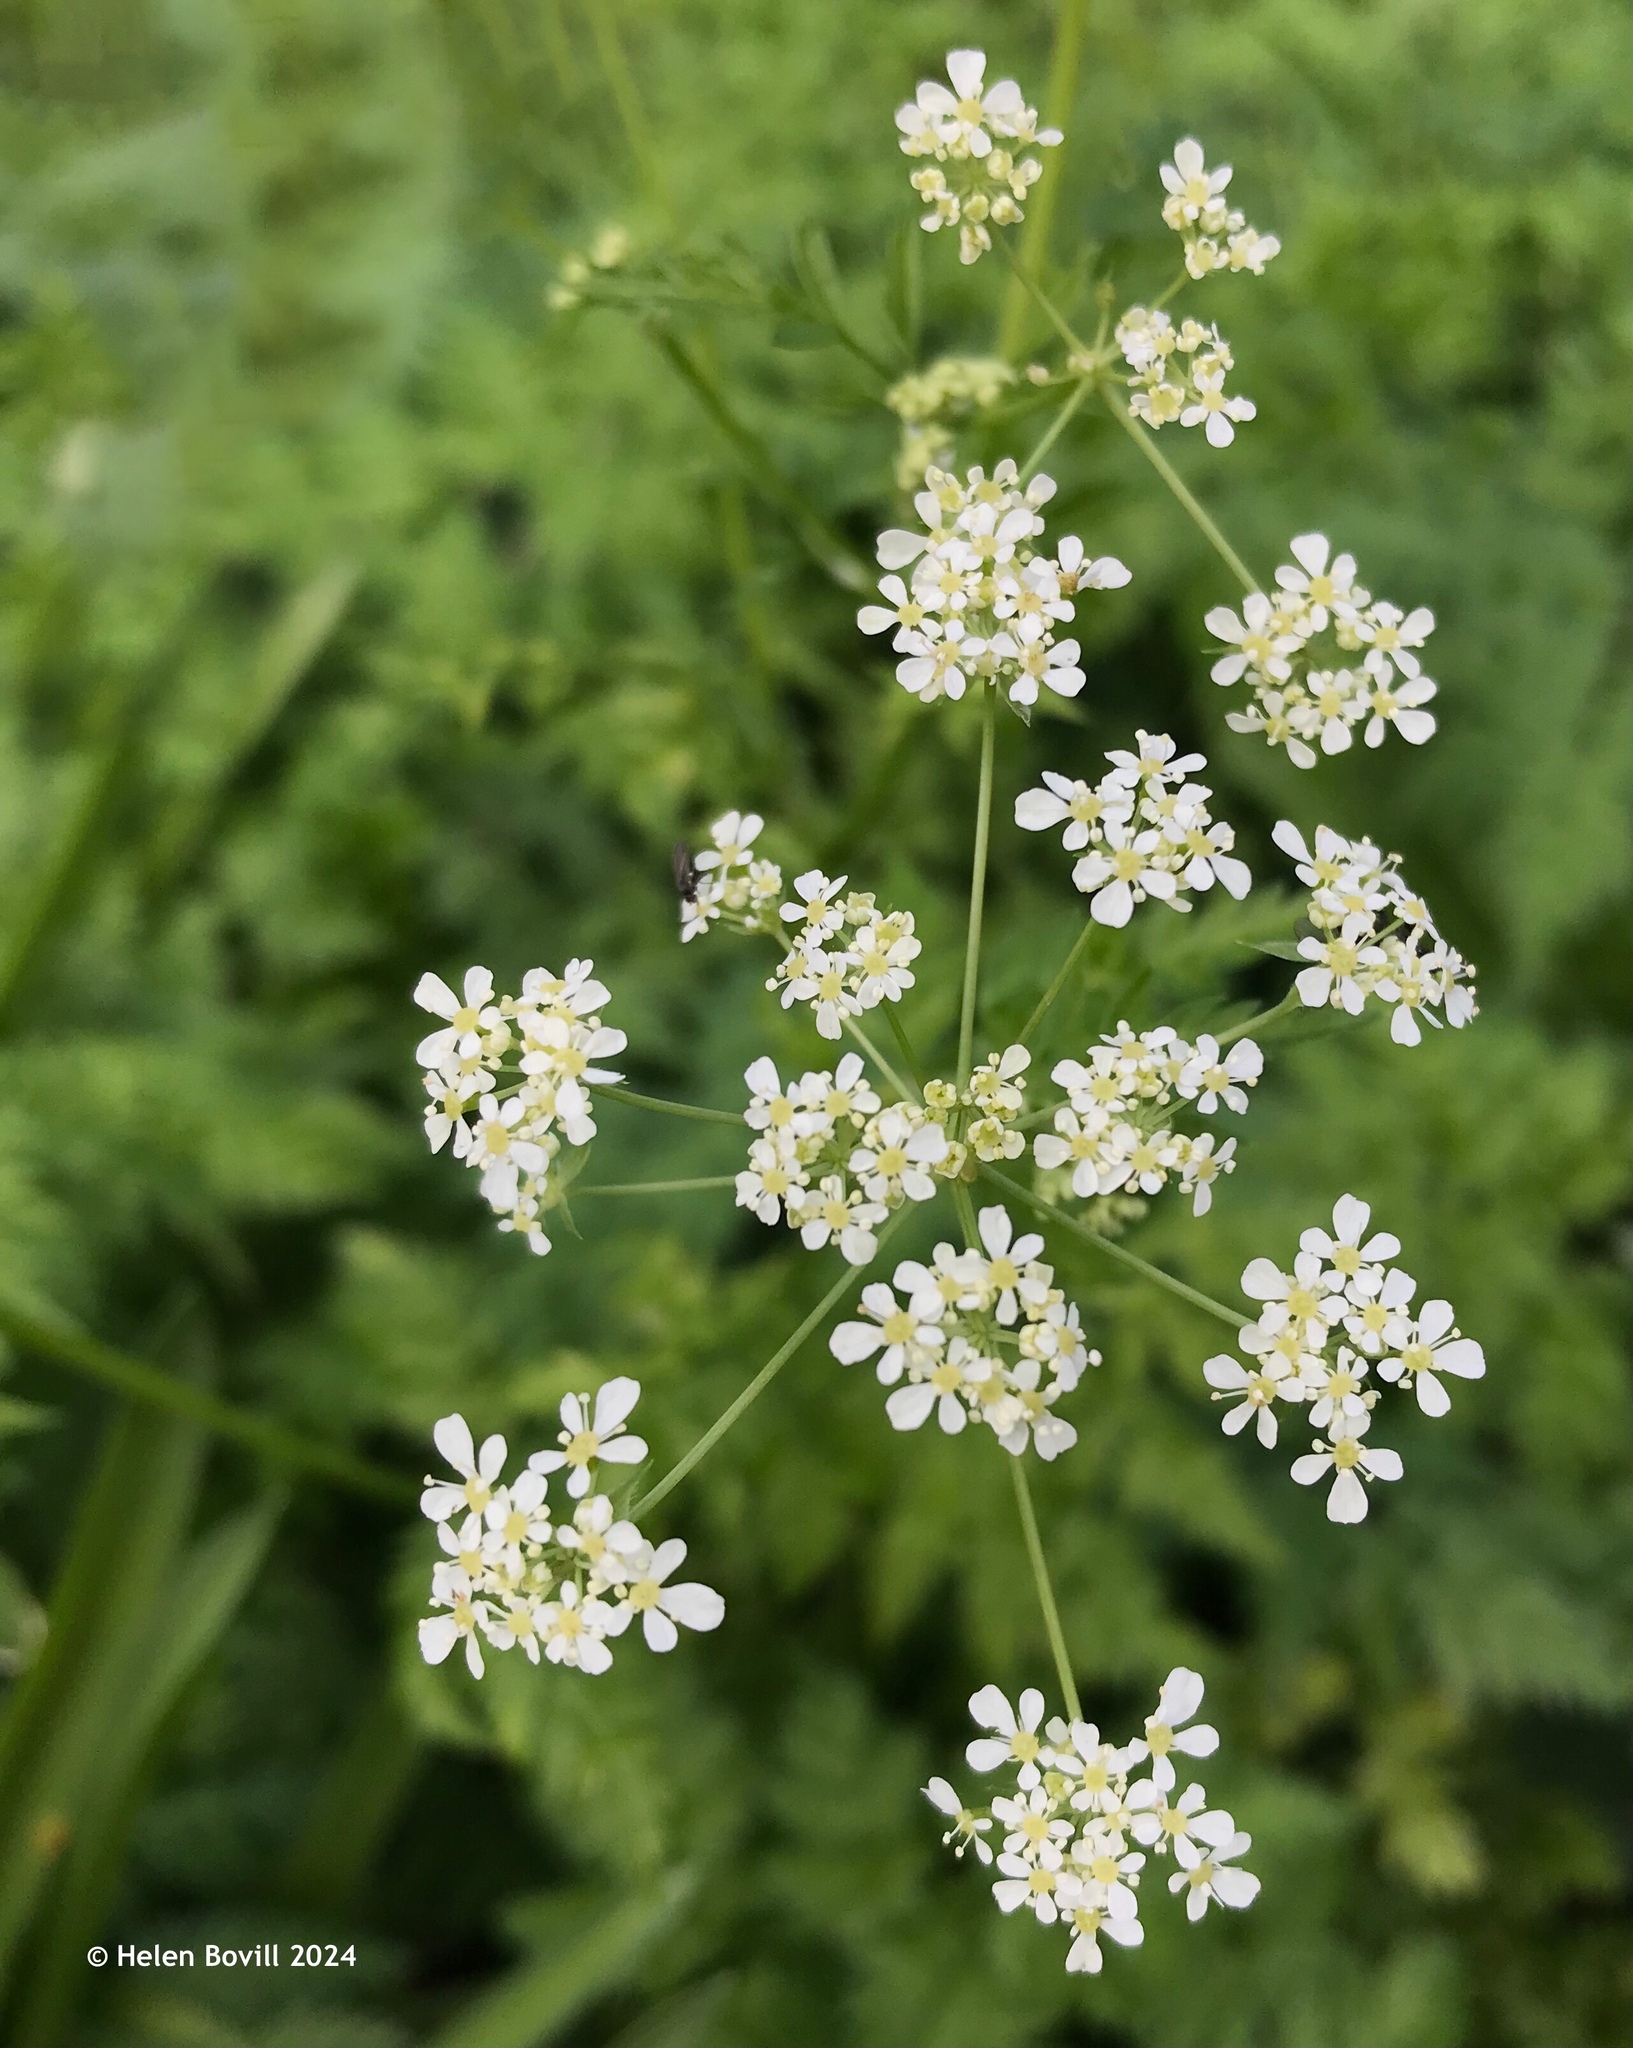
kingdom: Plantae
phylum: Tracheophyta
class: Magnoliopsida
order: Apiales
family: Apiaceae
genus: Anthriscus
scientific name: Anthriscus sylvestris
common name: Cow parsley
